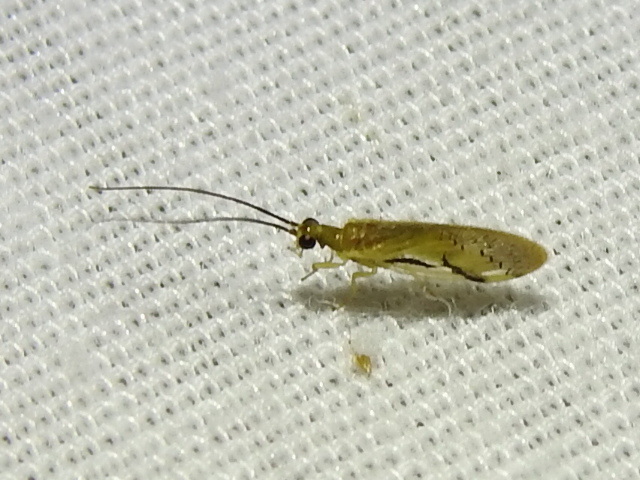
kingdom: Animalia
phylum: Arthropoda
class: Insecta
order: Neuroptera
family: Sisyridae
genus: Climacia
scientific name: Climacia chapini
